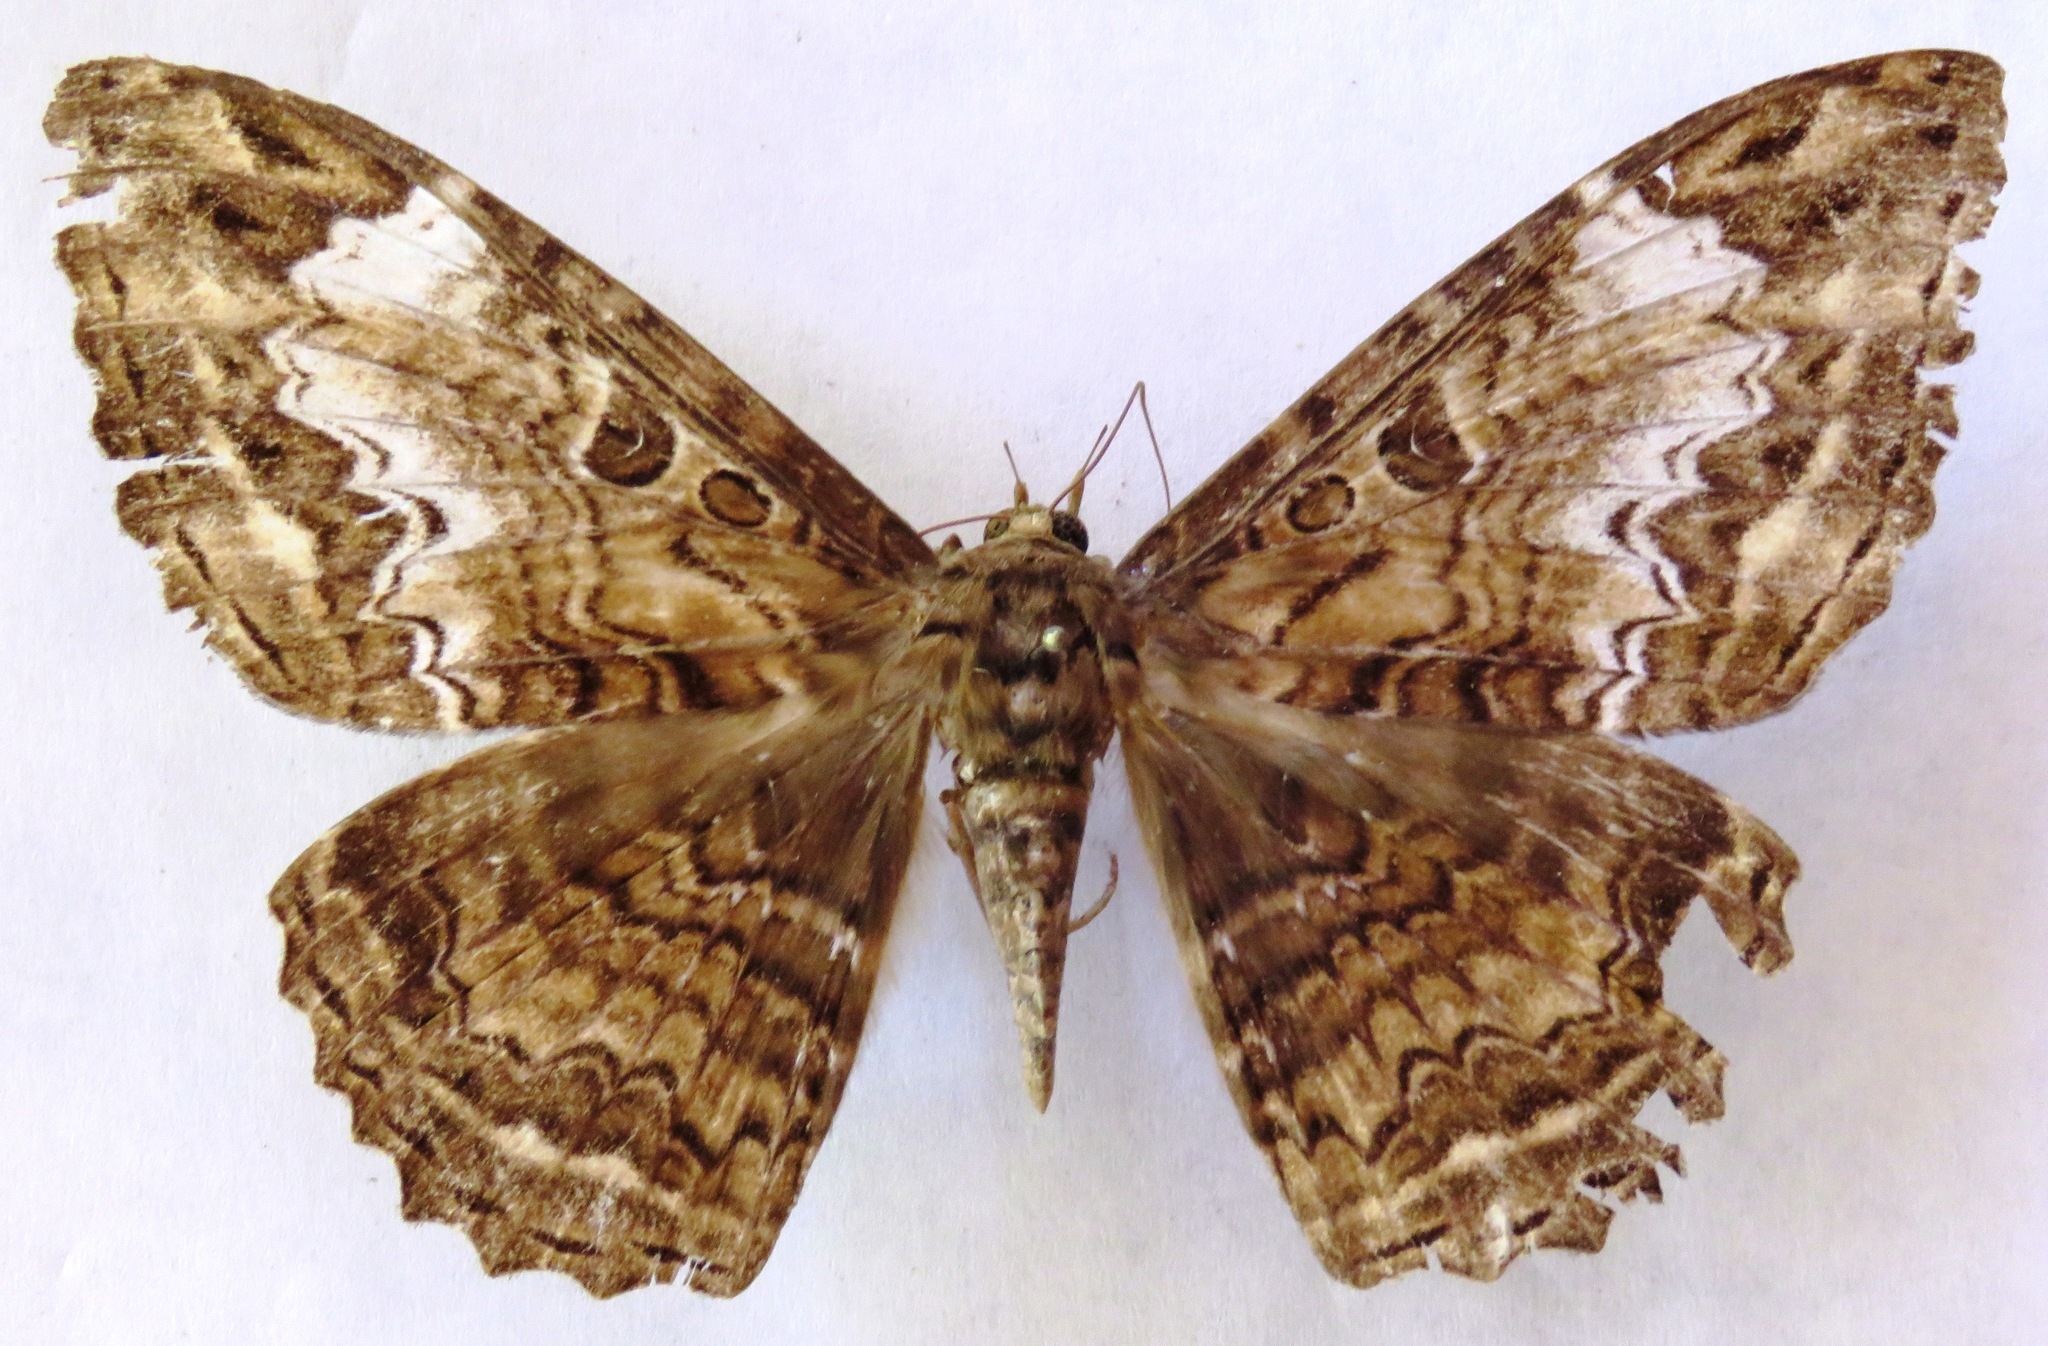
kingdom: Animalia
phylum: Arthropoda
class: Insecta
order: Lepidoptera
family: Erebidae
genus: Feigeria
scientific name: Feigeria
